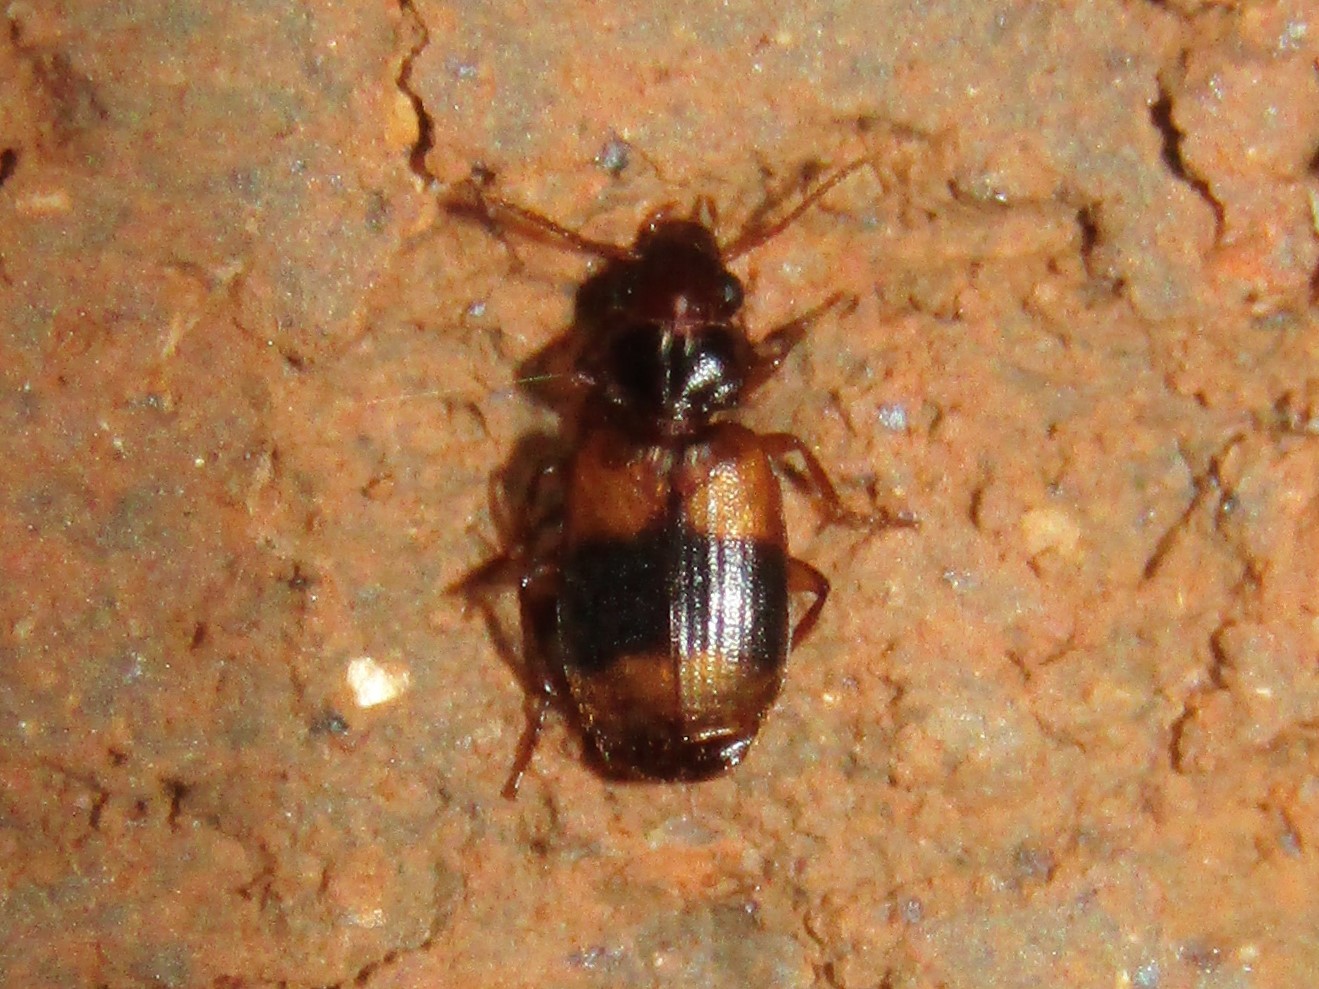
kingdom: Animalia
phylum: Arthropoda
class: Insecta
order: Coleoptera
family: Carabidae
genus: Somotrichus
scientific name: Somotrichus unifasciatus
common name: Ground beetle
